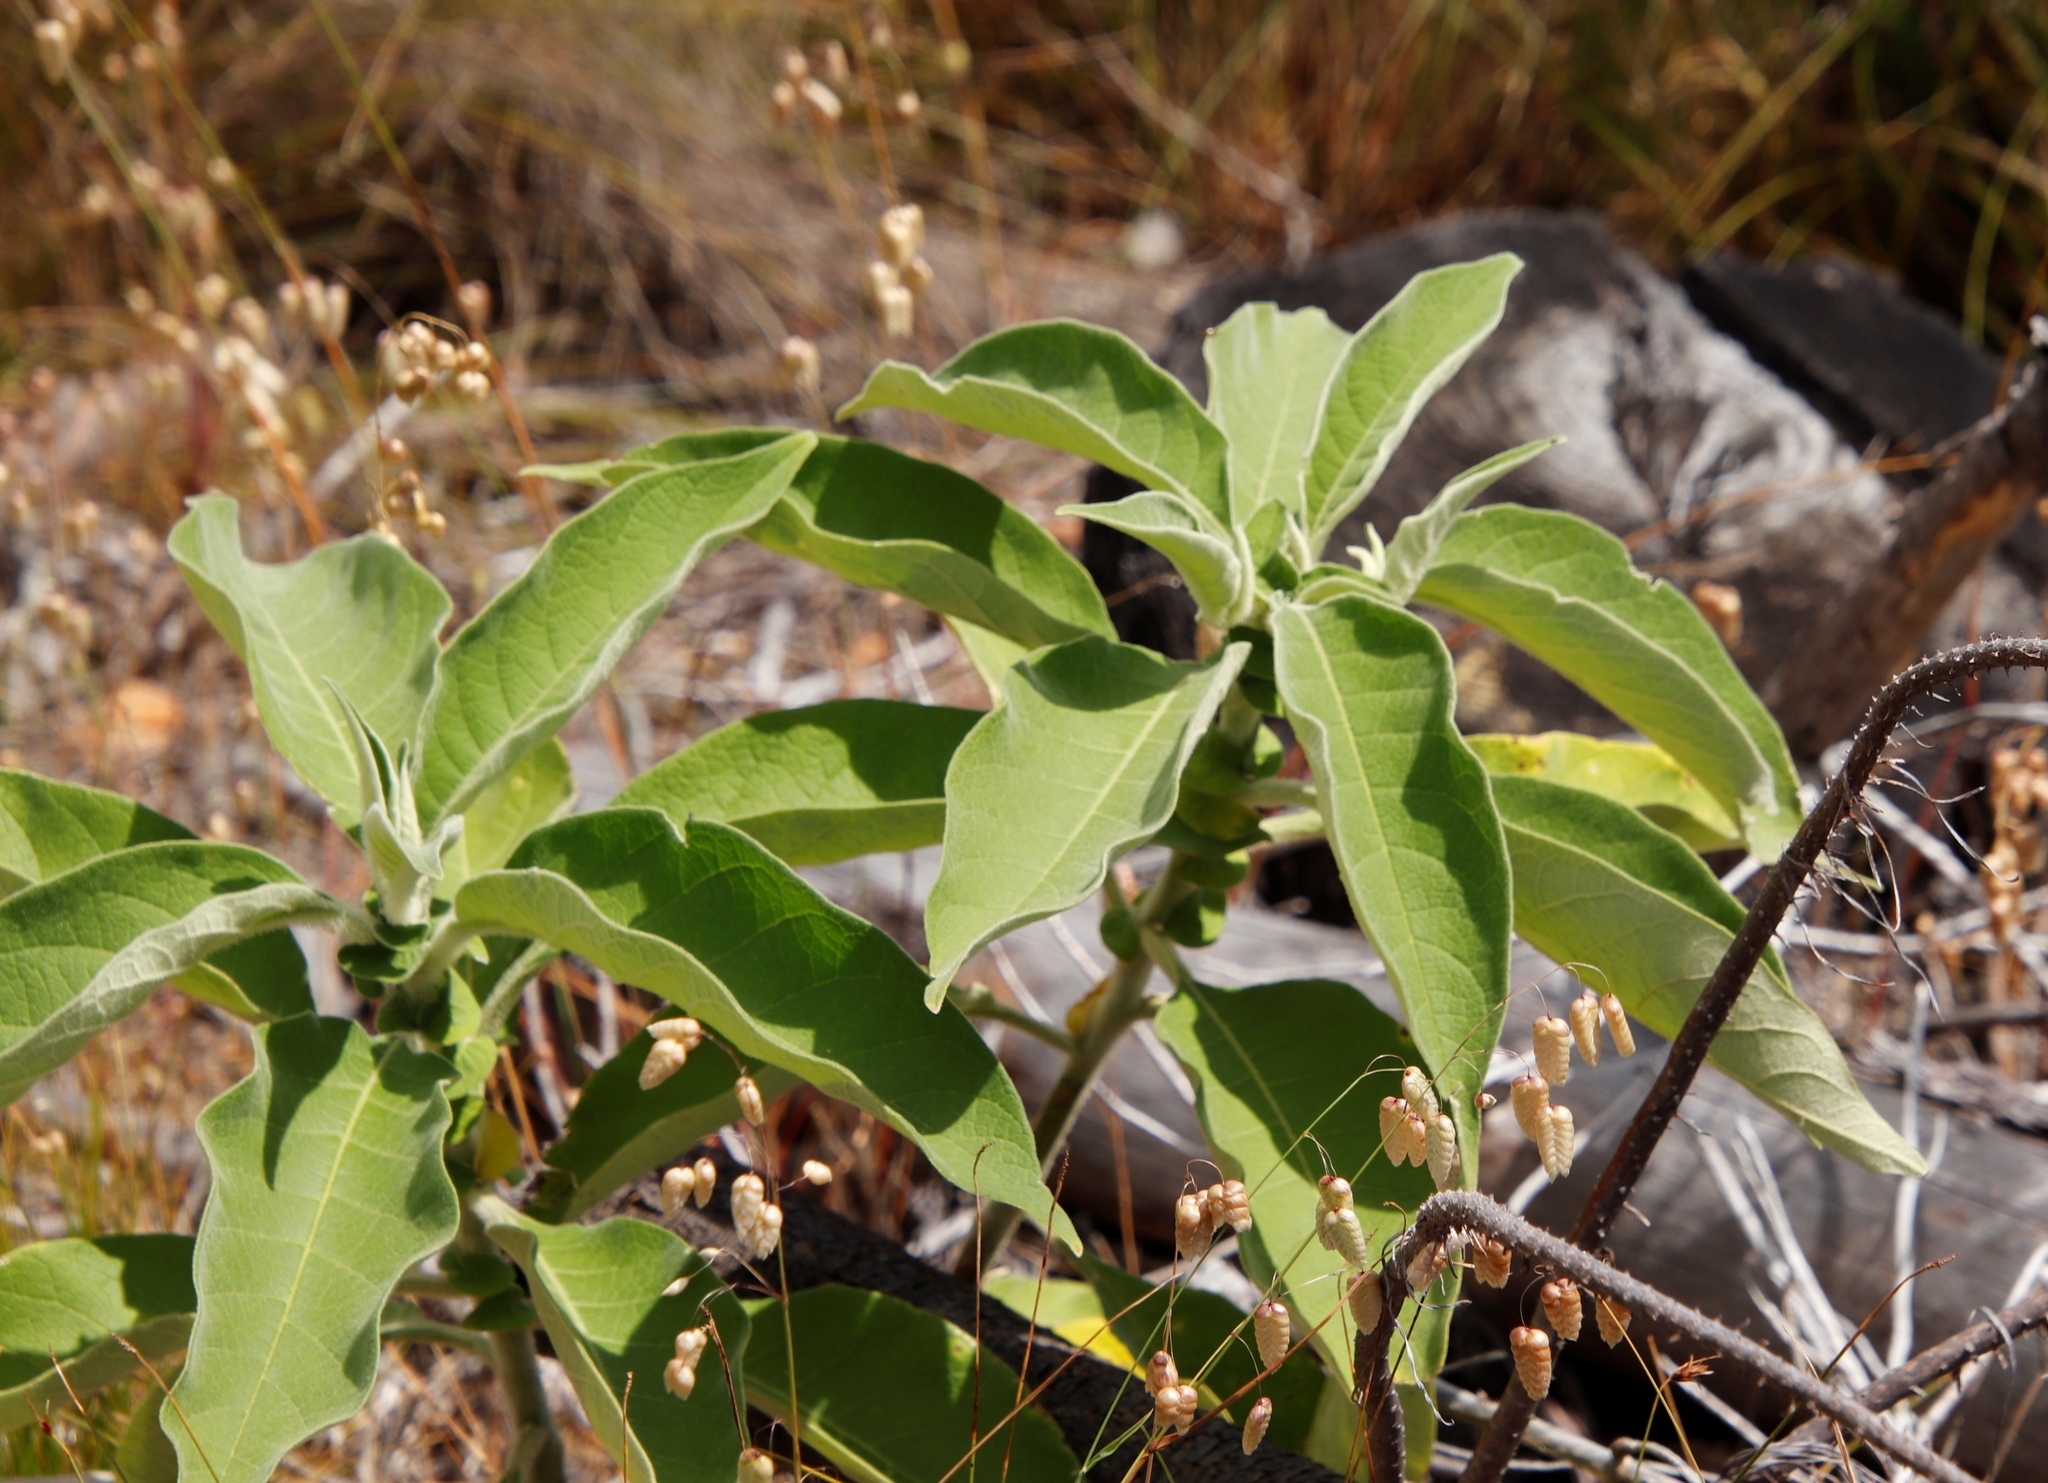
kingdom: Plantae
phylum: Tracheophyta
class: Magnoliopsida
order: Solanales
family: Solanaceae
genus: Solanum
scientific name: Solanum mauritianum
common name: Earleaf nightshade
